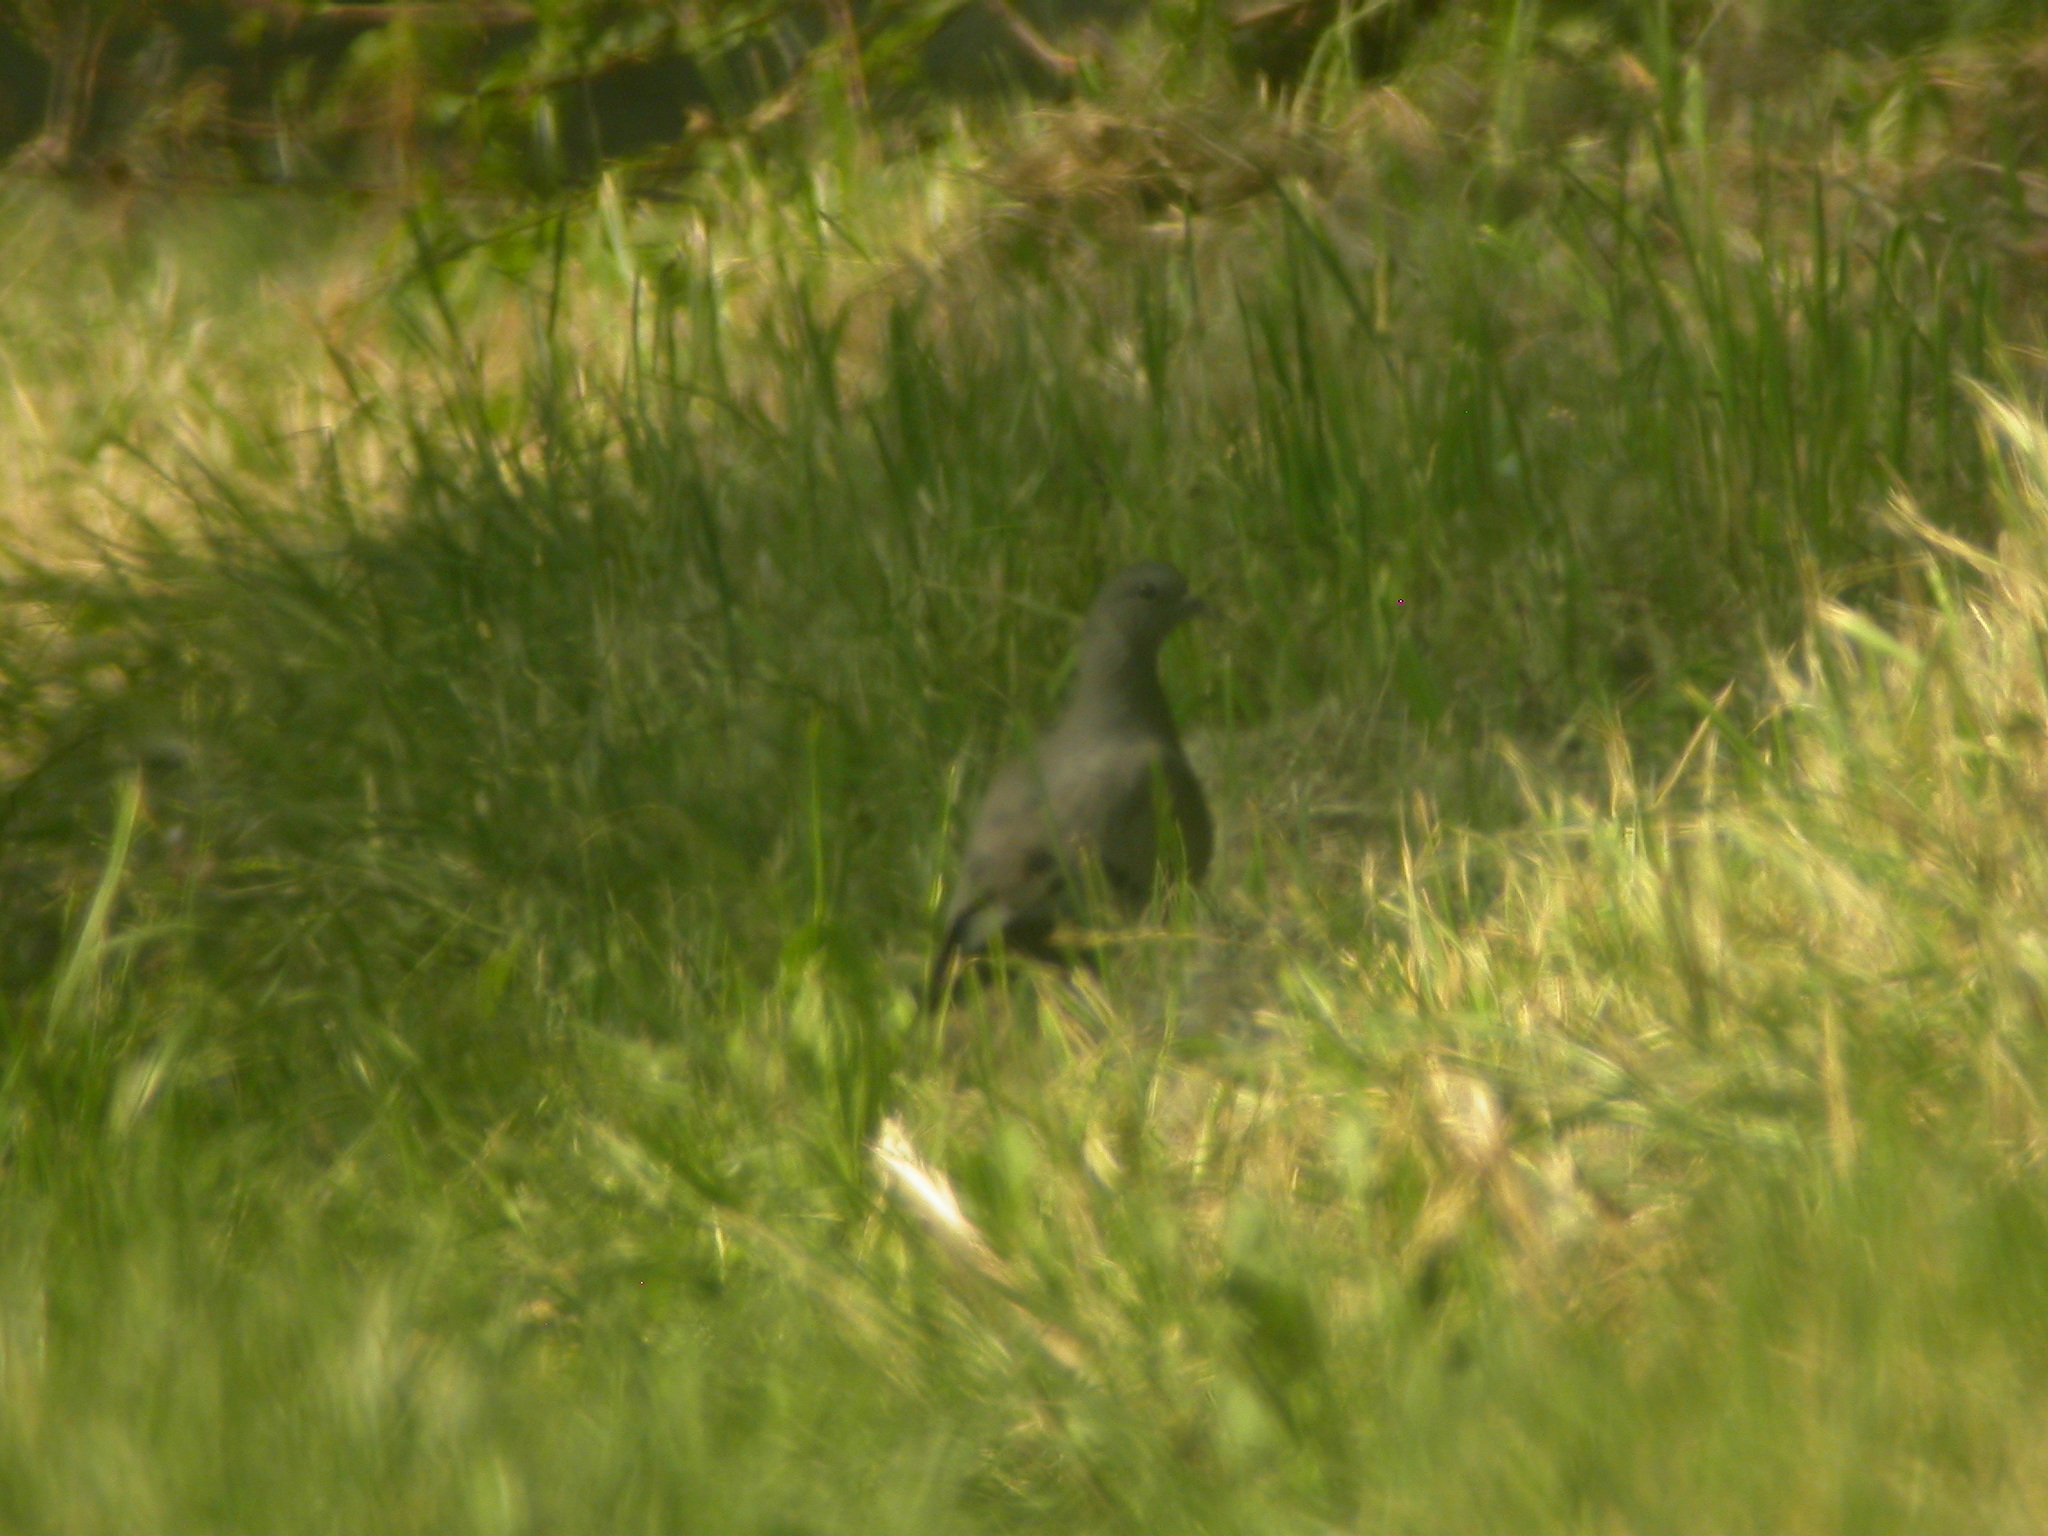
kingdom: Animalia
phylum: Chordata
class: Aves
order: Columbiformes
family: Columbidae
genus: Columba
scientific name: Columba oenas
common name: Stock dove
